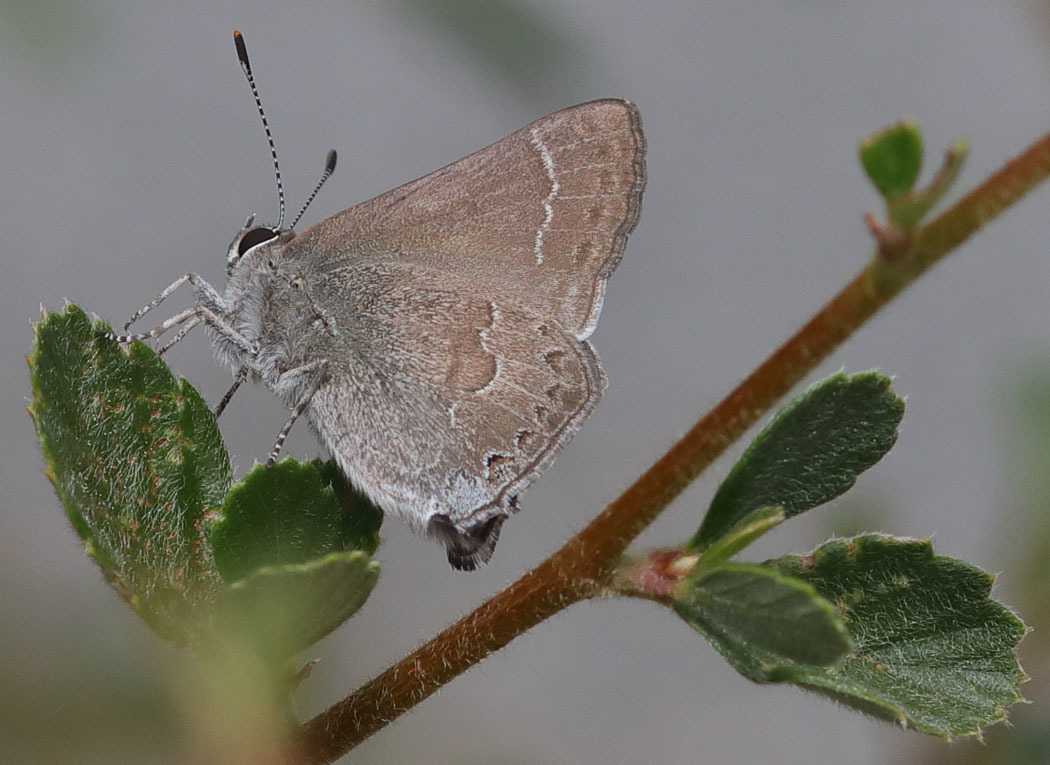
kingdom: Animalia
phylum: Arthropoda
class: Insecta
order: Lepidoptera
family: Lycaenidae
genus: Thecla
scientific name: Thecla tetra
